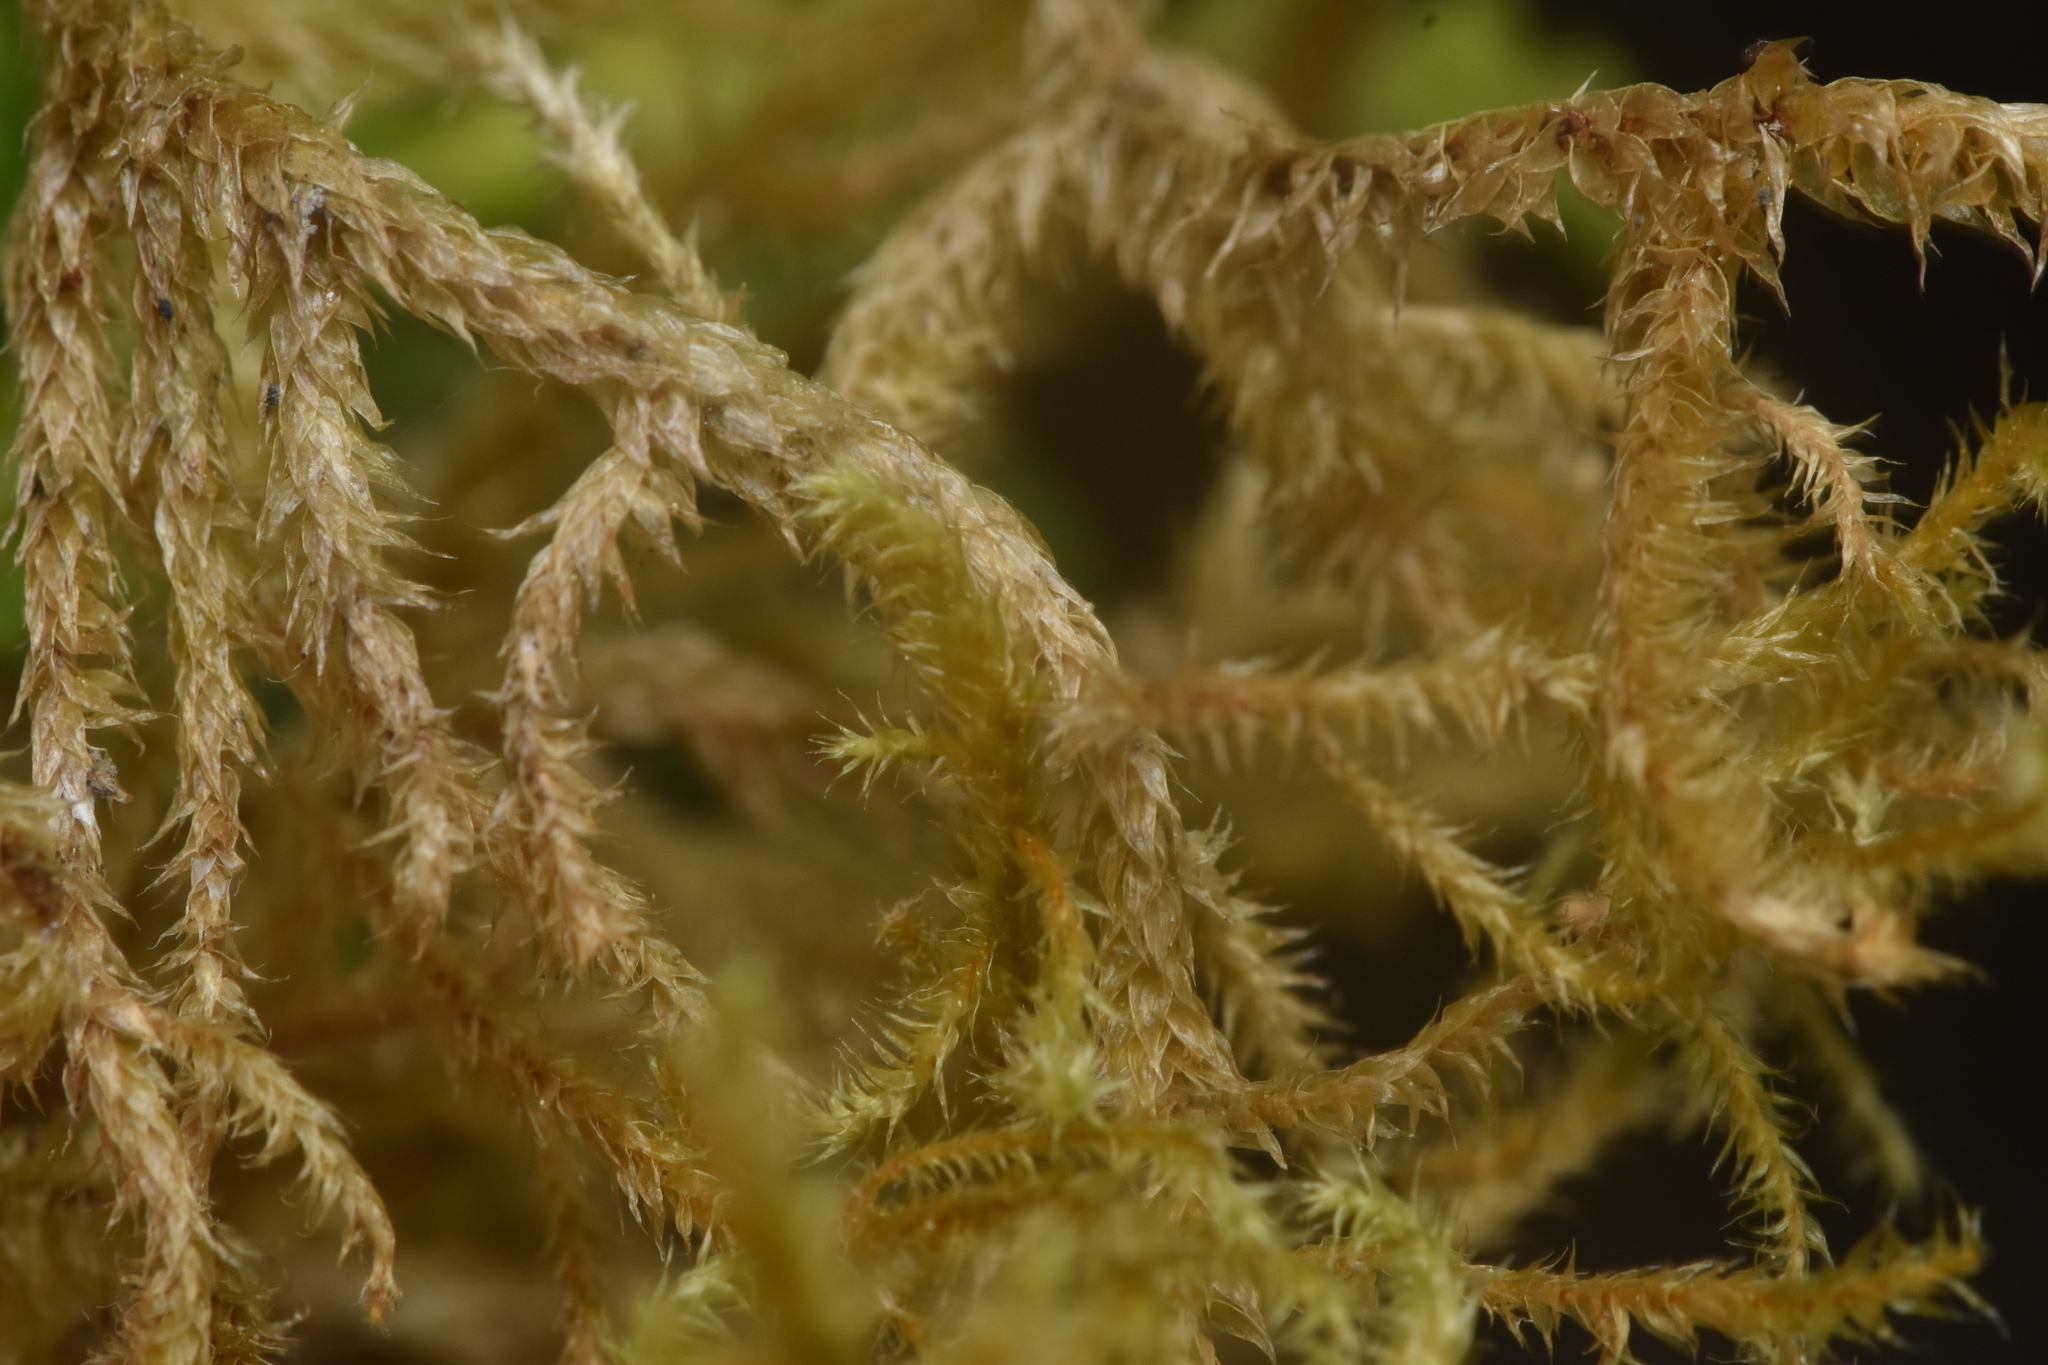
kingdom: Plantae
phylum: Bryophyta
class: Bryopsida
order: Hypnales
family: Antitrichiaceae
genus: Antitrichia
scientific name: Antitrichia curtipendula
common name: Pendulous wing-moss
